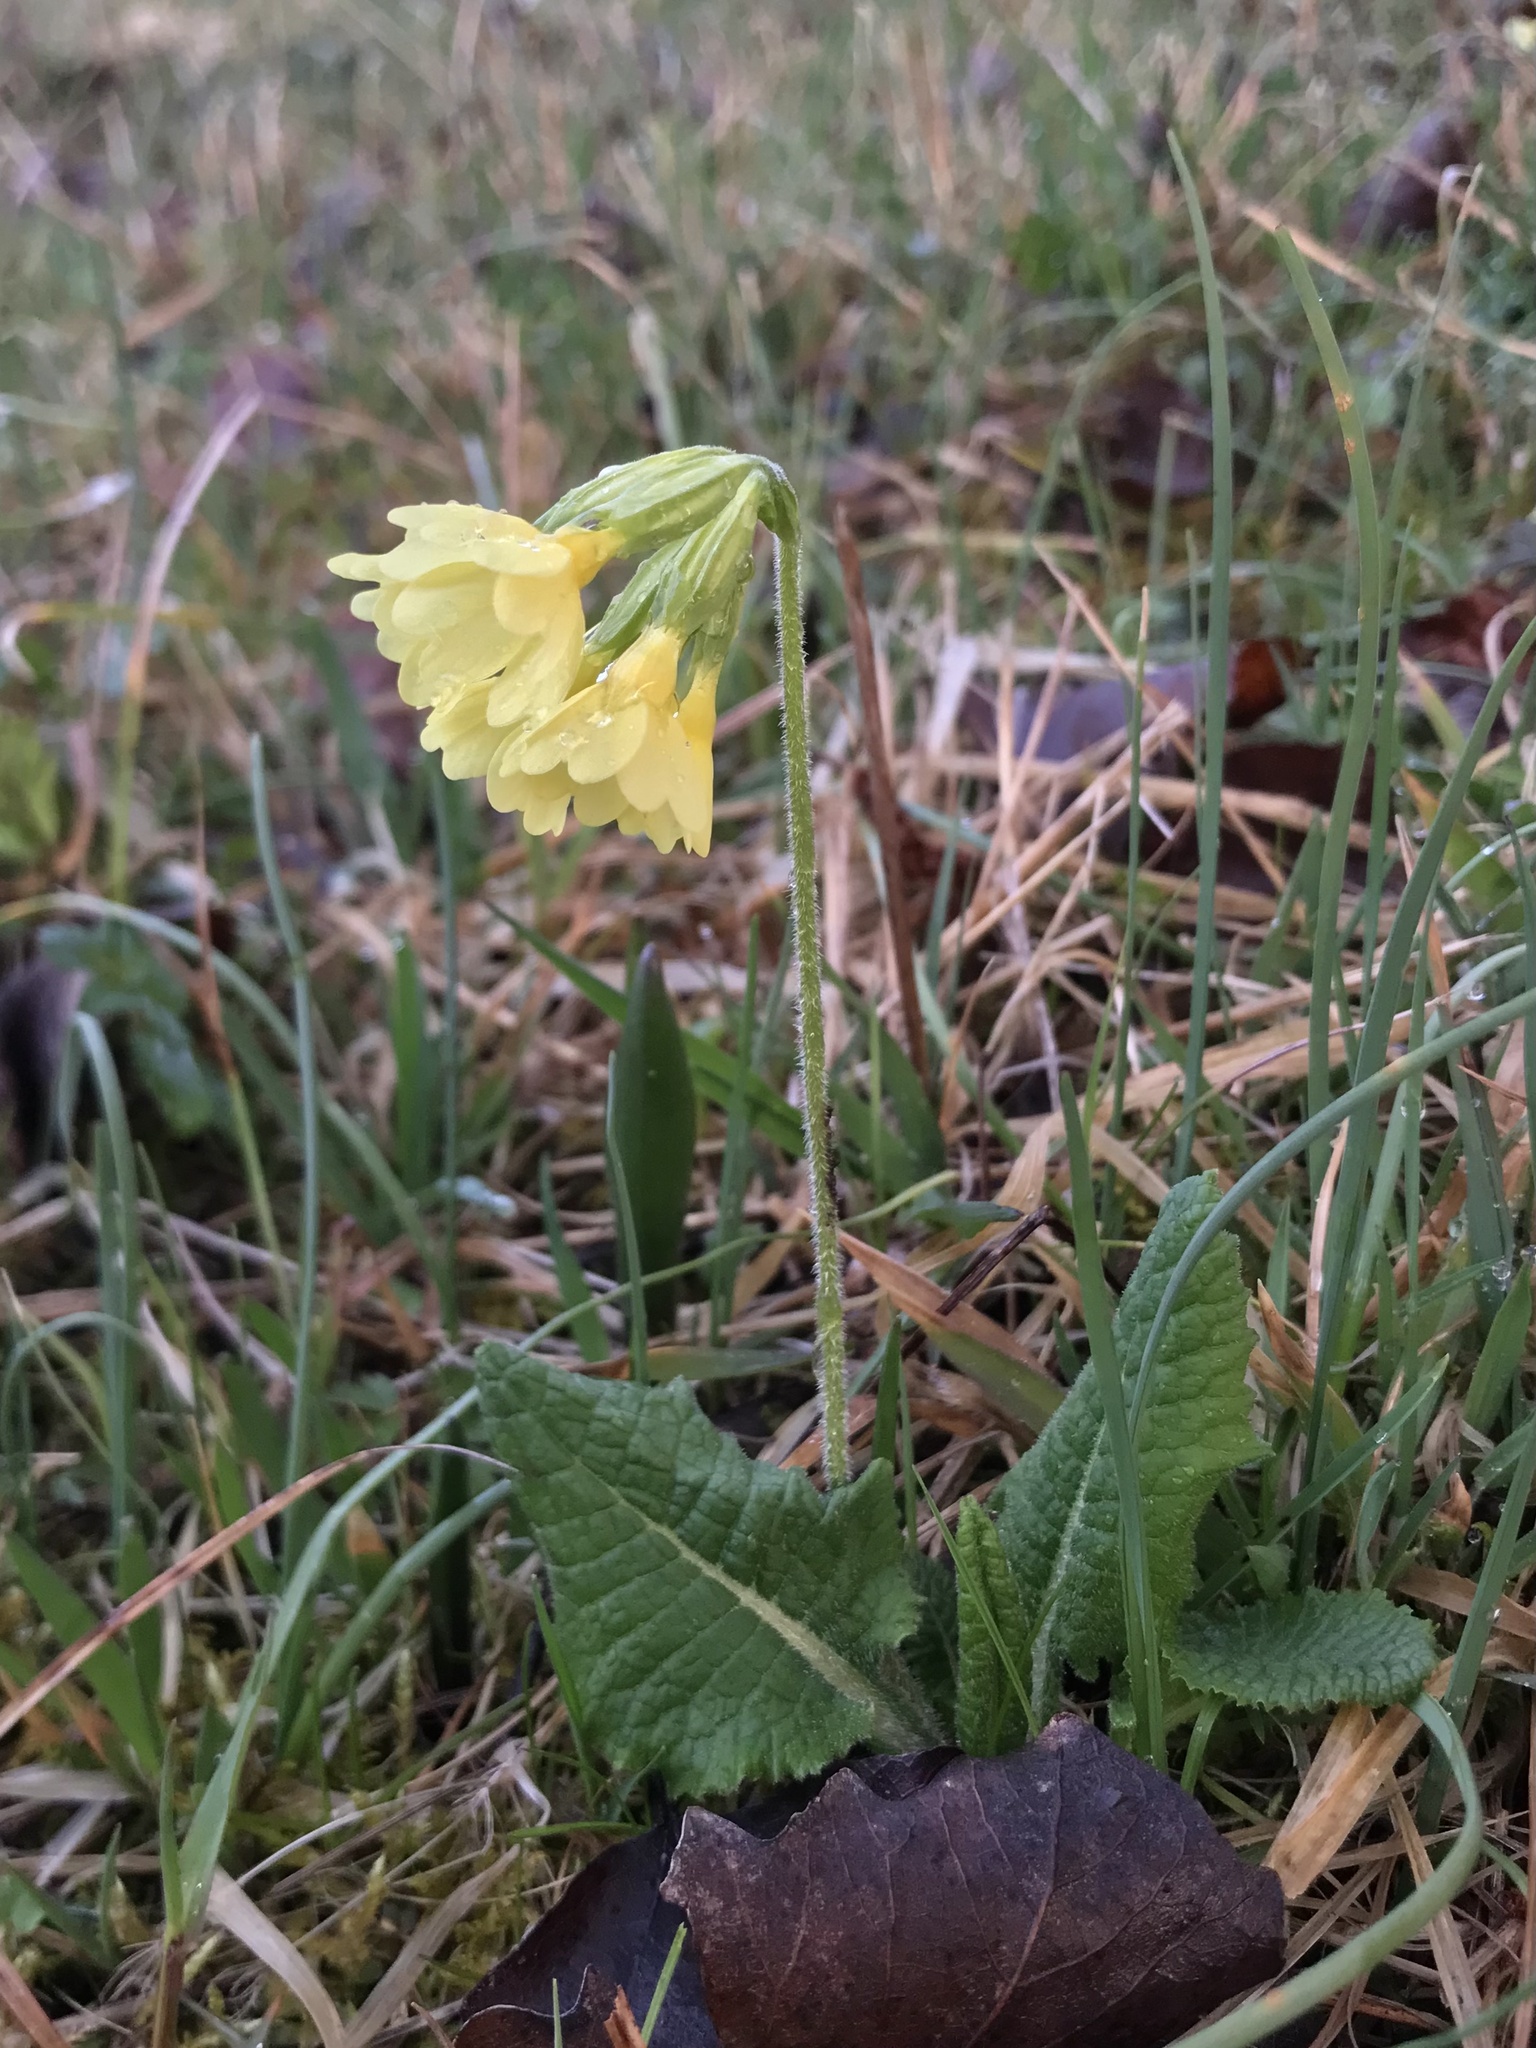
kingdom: Plantae
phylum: Tracheophyta
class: Magnoliopsida
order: Ericales
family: Primulaceae
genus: Primula
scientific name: Primula elatior
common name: Oxlip
